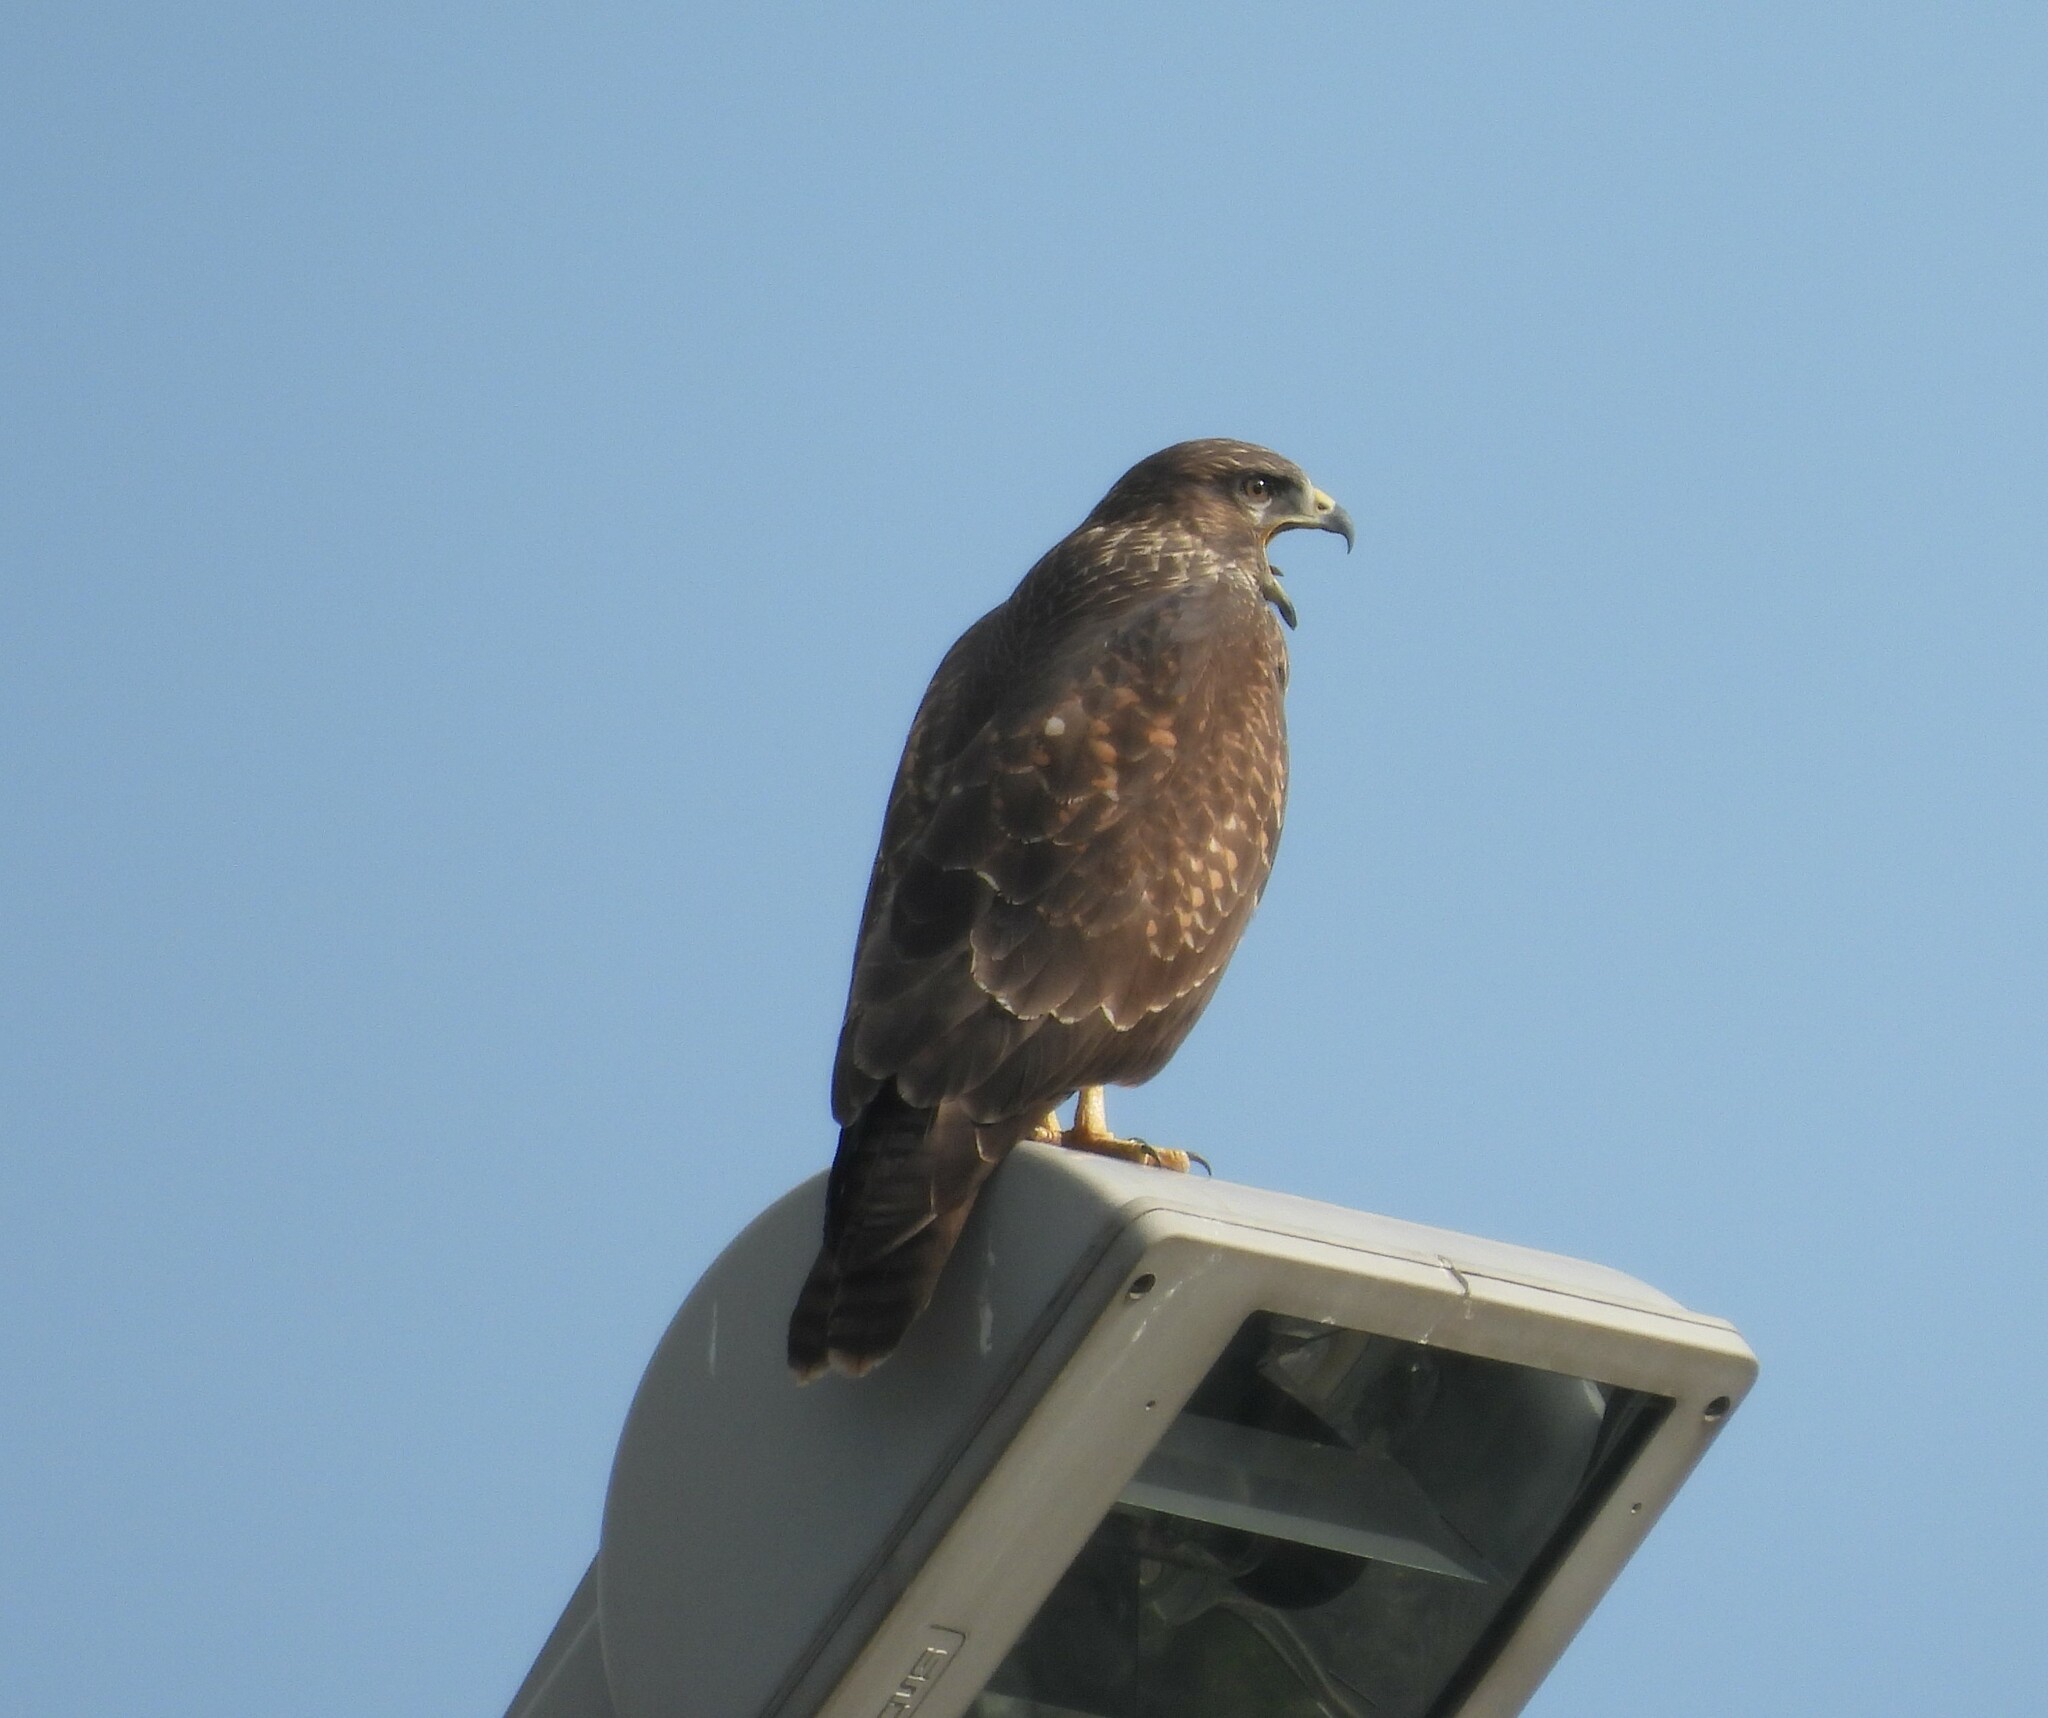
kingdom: Animalia
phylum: Chordata
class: Aves
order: Accipitriformes
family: Accipitridae
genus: Buteo
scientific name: Buteo buteo
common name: Common buzzard
